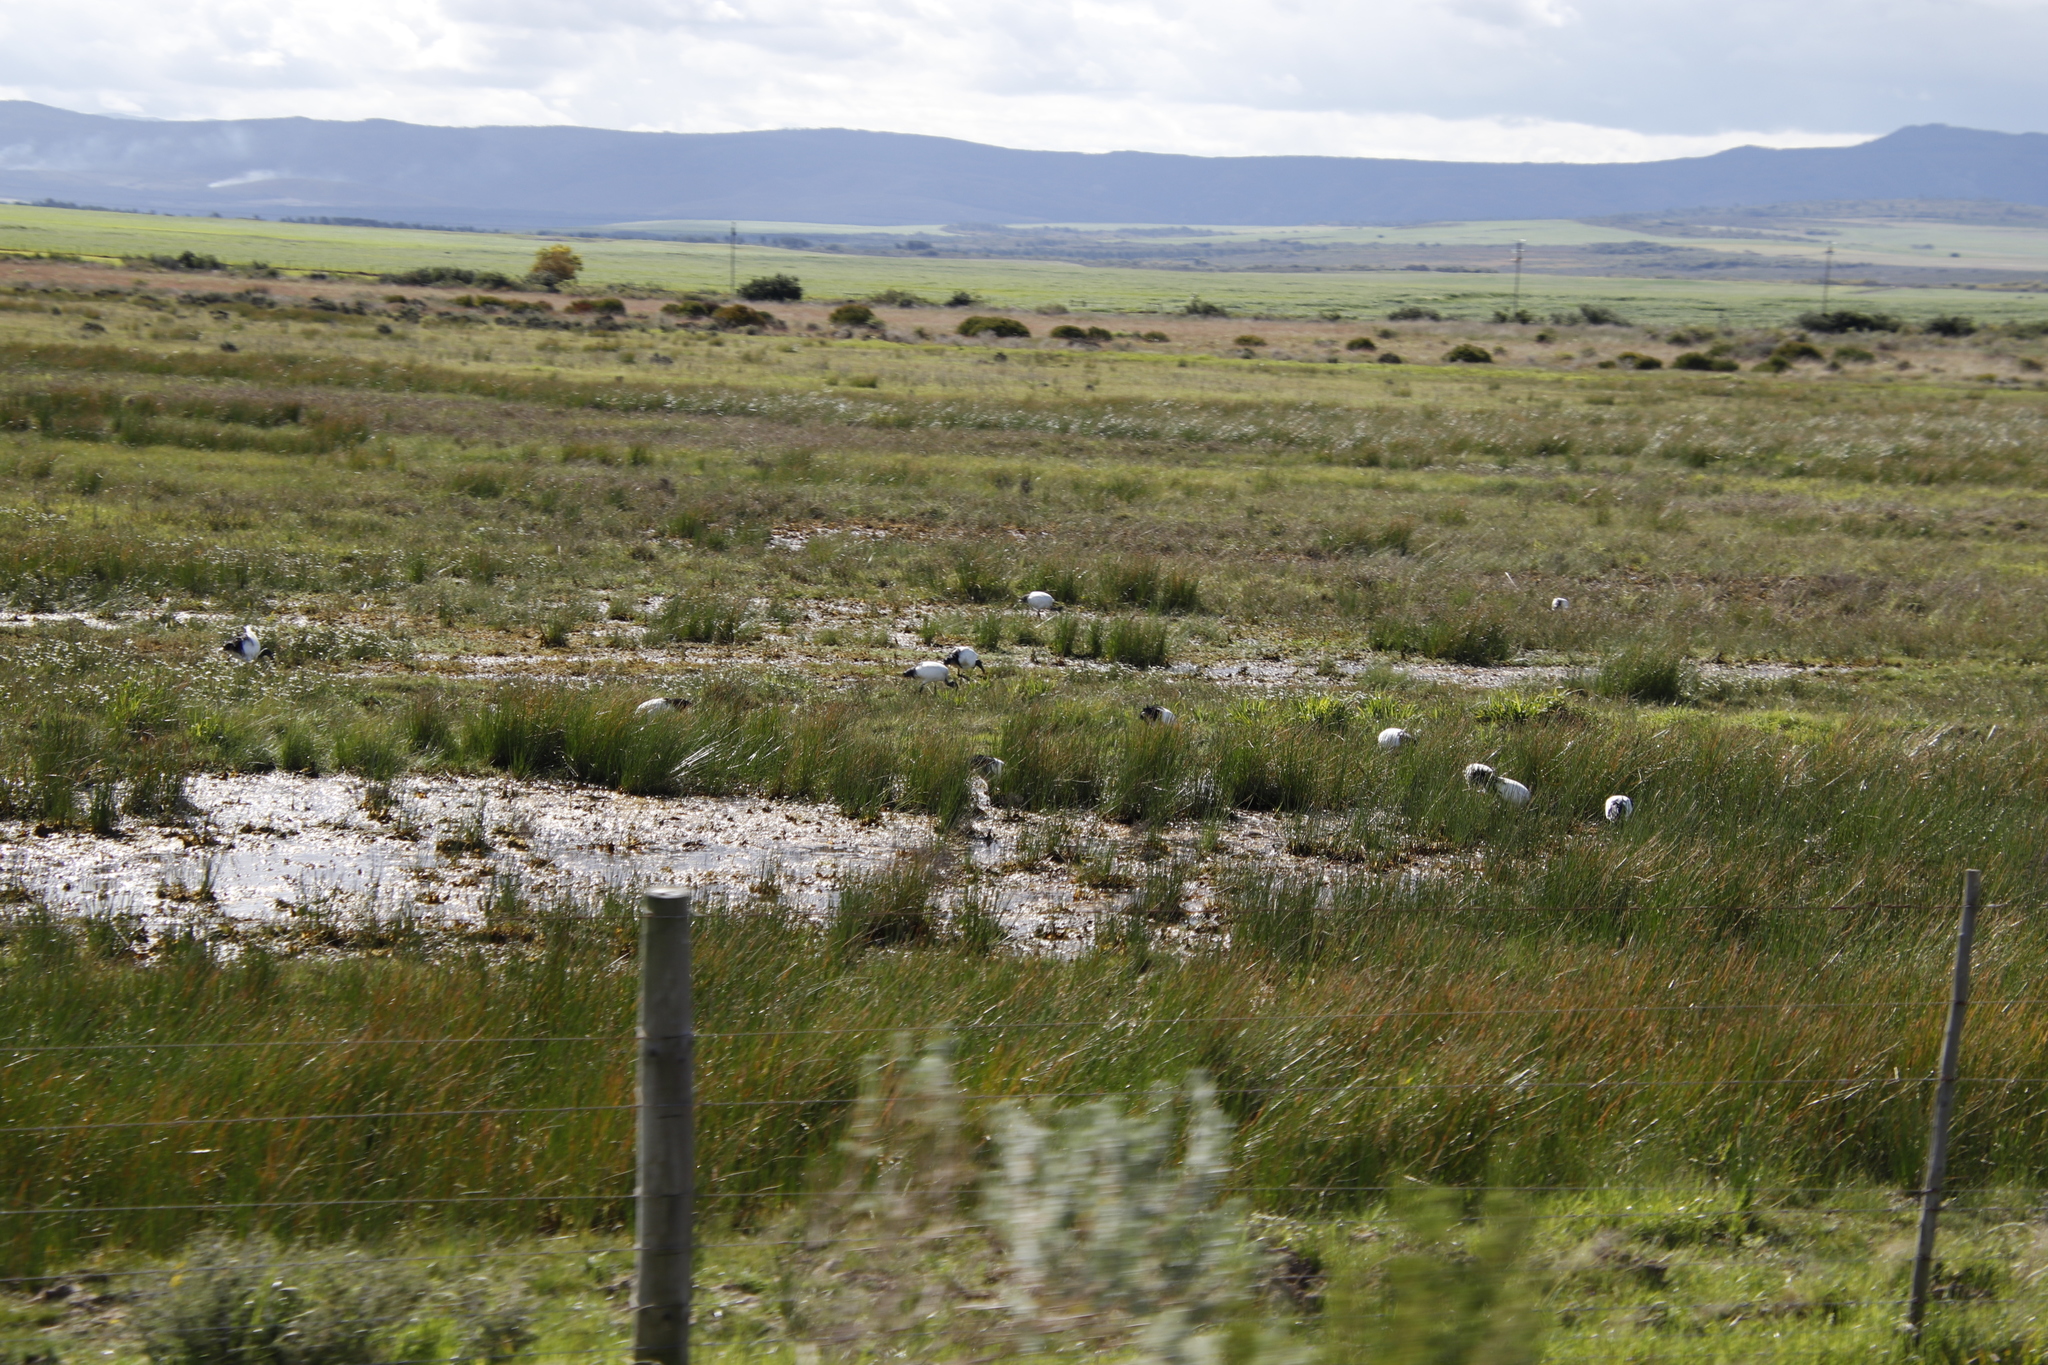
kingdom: Animalia
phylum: Chordata
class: Aves
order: Pelecaniformes
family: Threskiornithidae
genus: Threskiornis
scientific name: Threskiornis aethiopicus
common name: Sacred ibis
